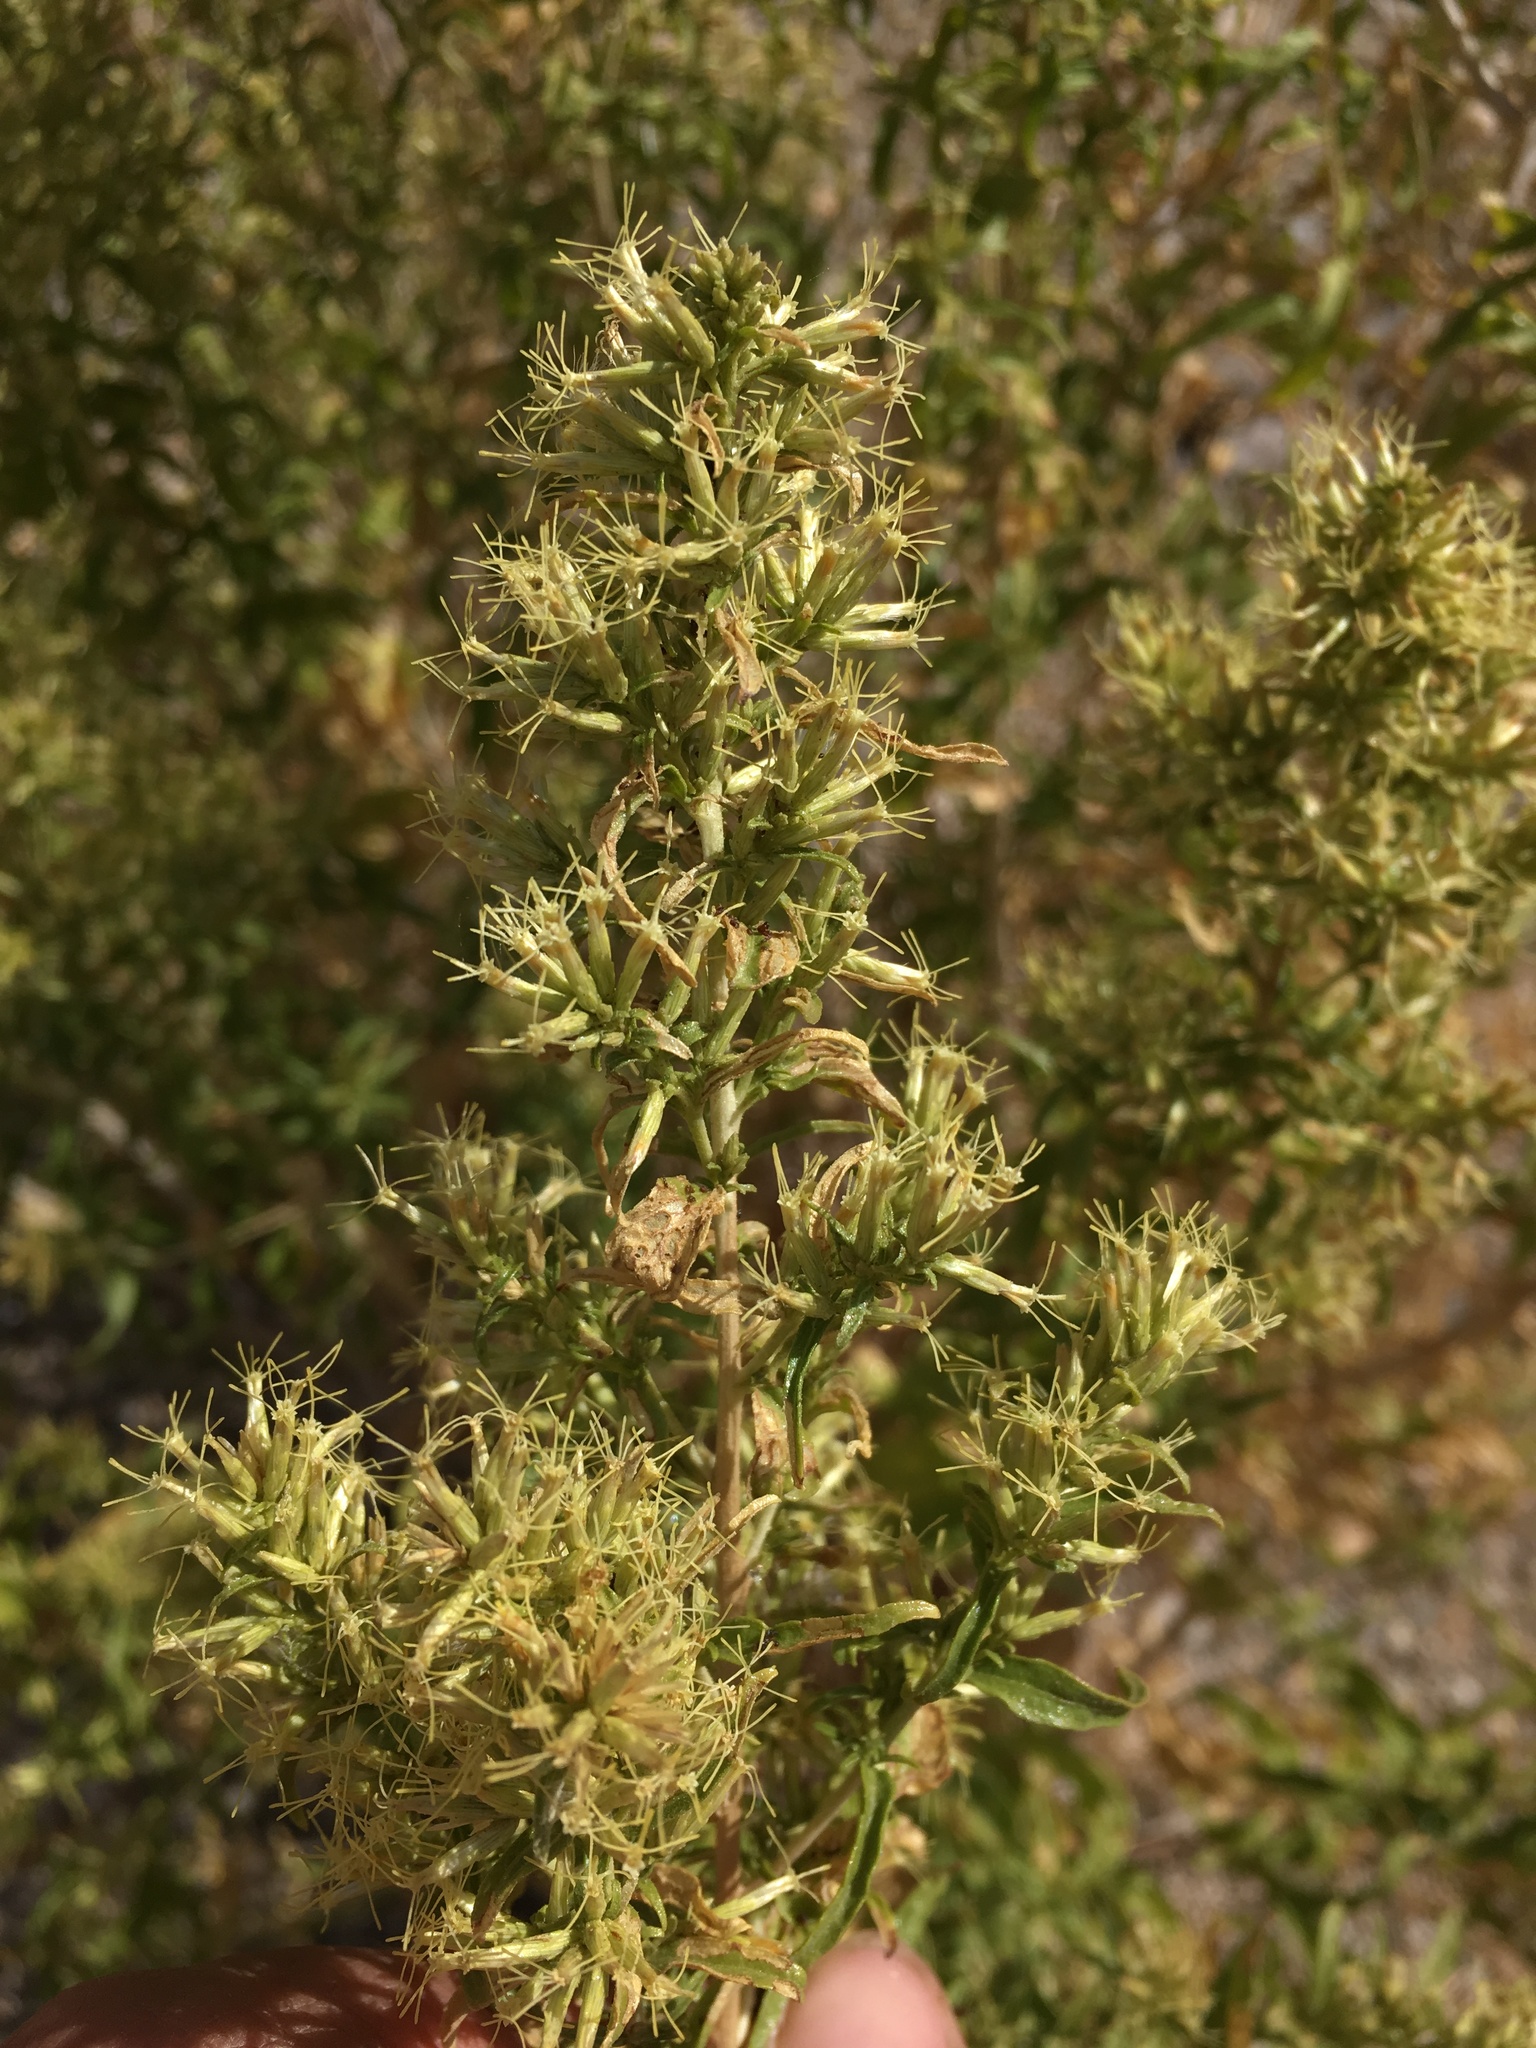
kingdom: Plantae
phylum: Tracheophyta
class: Magnoliopsida
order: Asterales
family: Asteraceae
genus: Brickellia
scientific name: Brickellia longifolia
